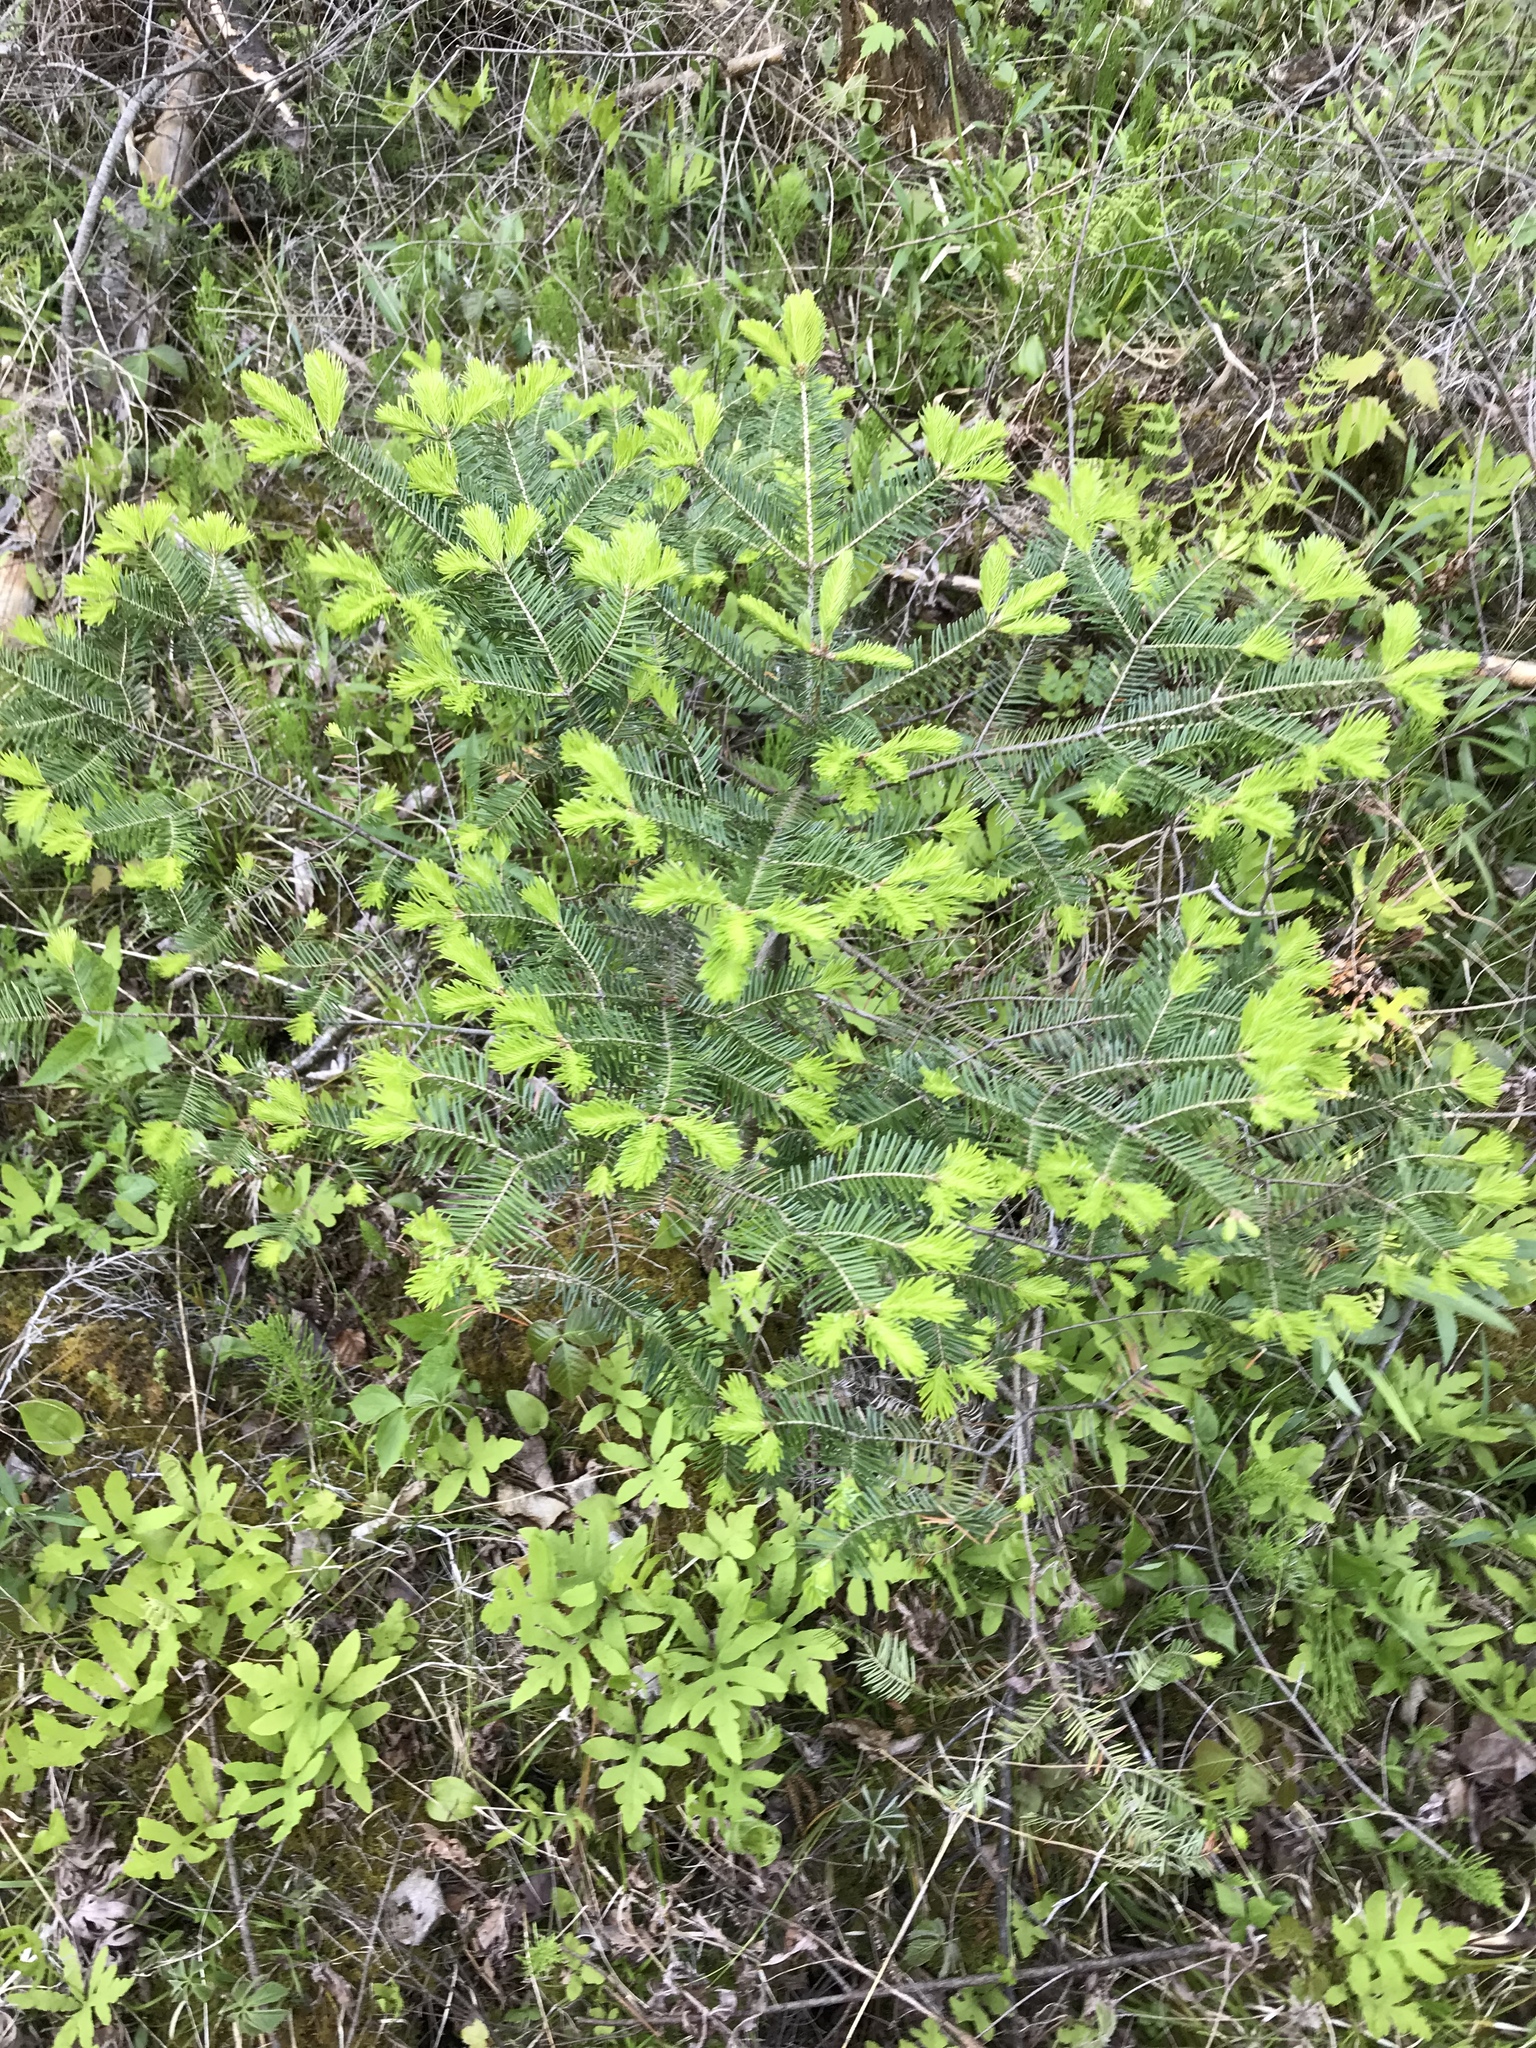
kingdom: Plantae
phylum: Tracheophyta
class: Pinopsida
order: Pinales
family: Pinaceae
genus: Abies
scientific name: Abies balsamea
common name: Balsam fir
